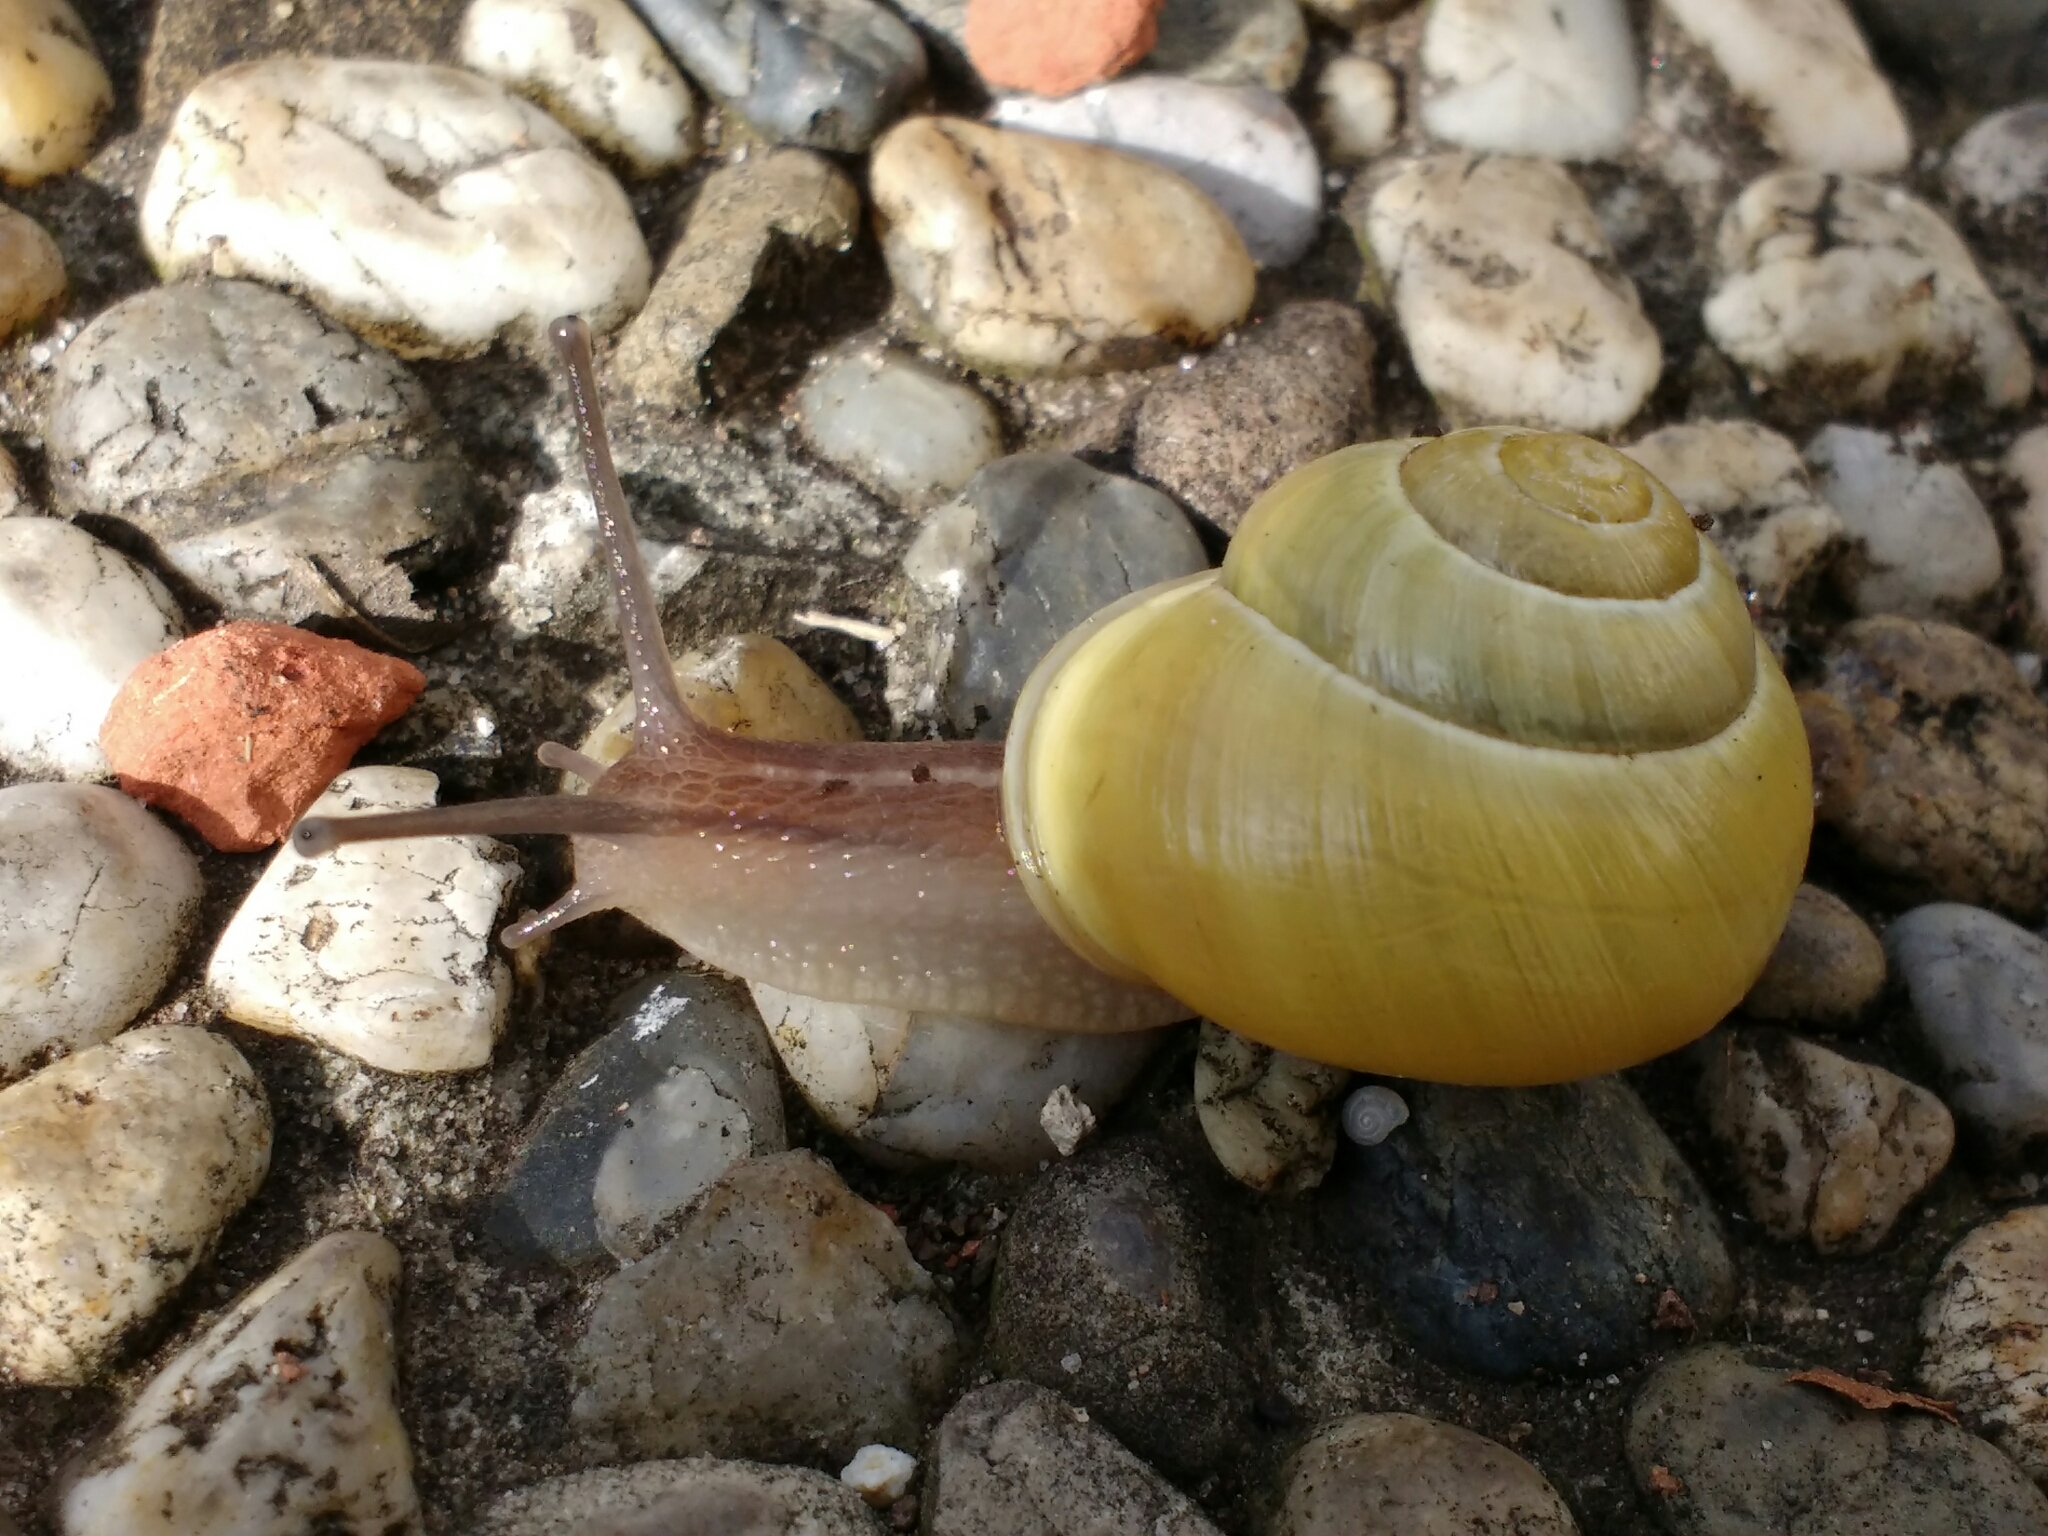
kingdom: Animalia
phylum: Mollusca
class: Gastropoda
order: Stylommatophora
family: Helicidae
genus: Cepaea
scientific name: Cepaea hortensis
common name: White-lip gardensnail
